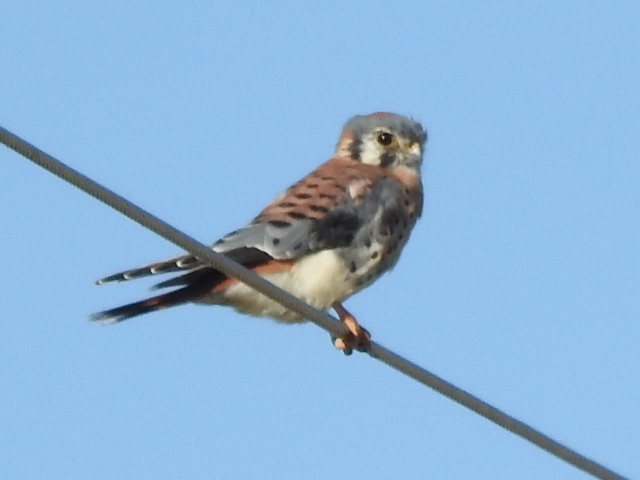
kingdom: Animalia
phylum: Chordata
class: Aves
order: Falconiformes
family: Falconidae
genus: Falco
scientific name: Falco sparverius
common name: American kestrel
